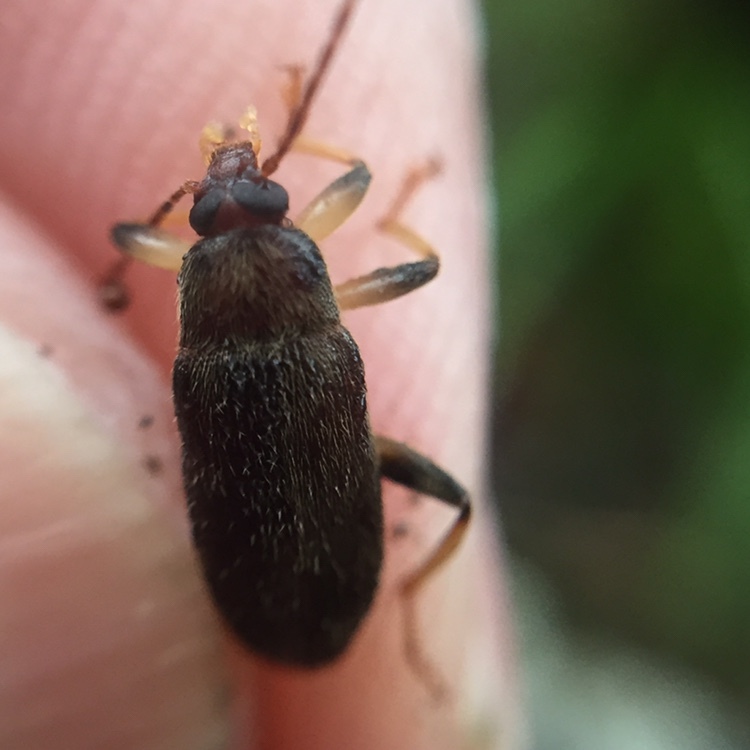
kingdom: Animalia
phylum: Arthropoda
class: Insecta
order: Coleoptera
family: Tenebrionidae
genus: Homotrysis
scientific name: Homotrysis
